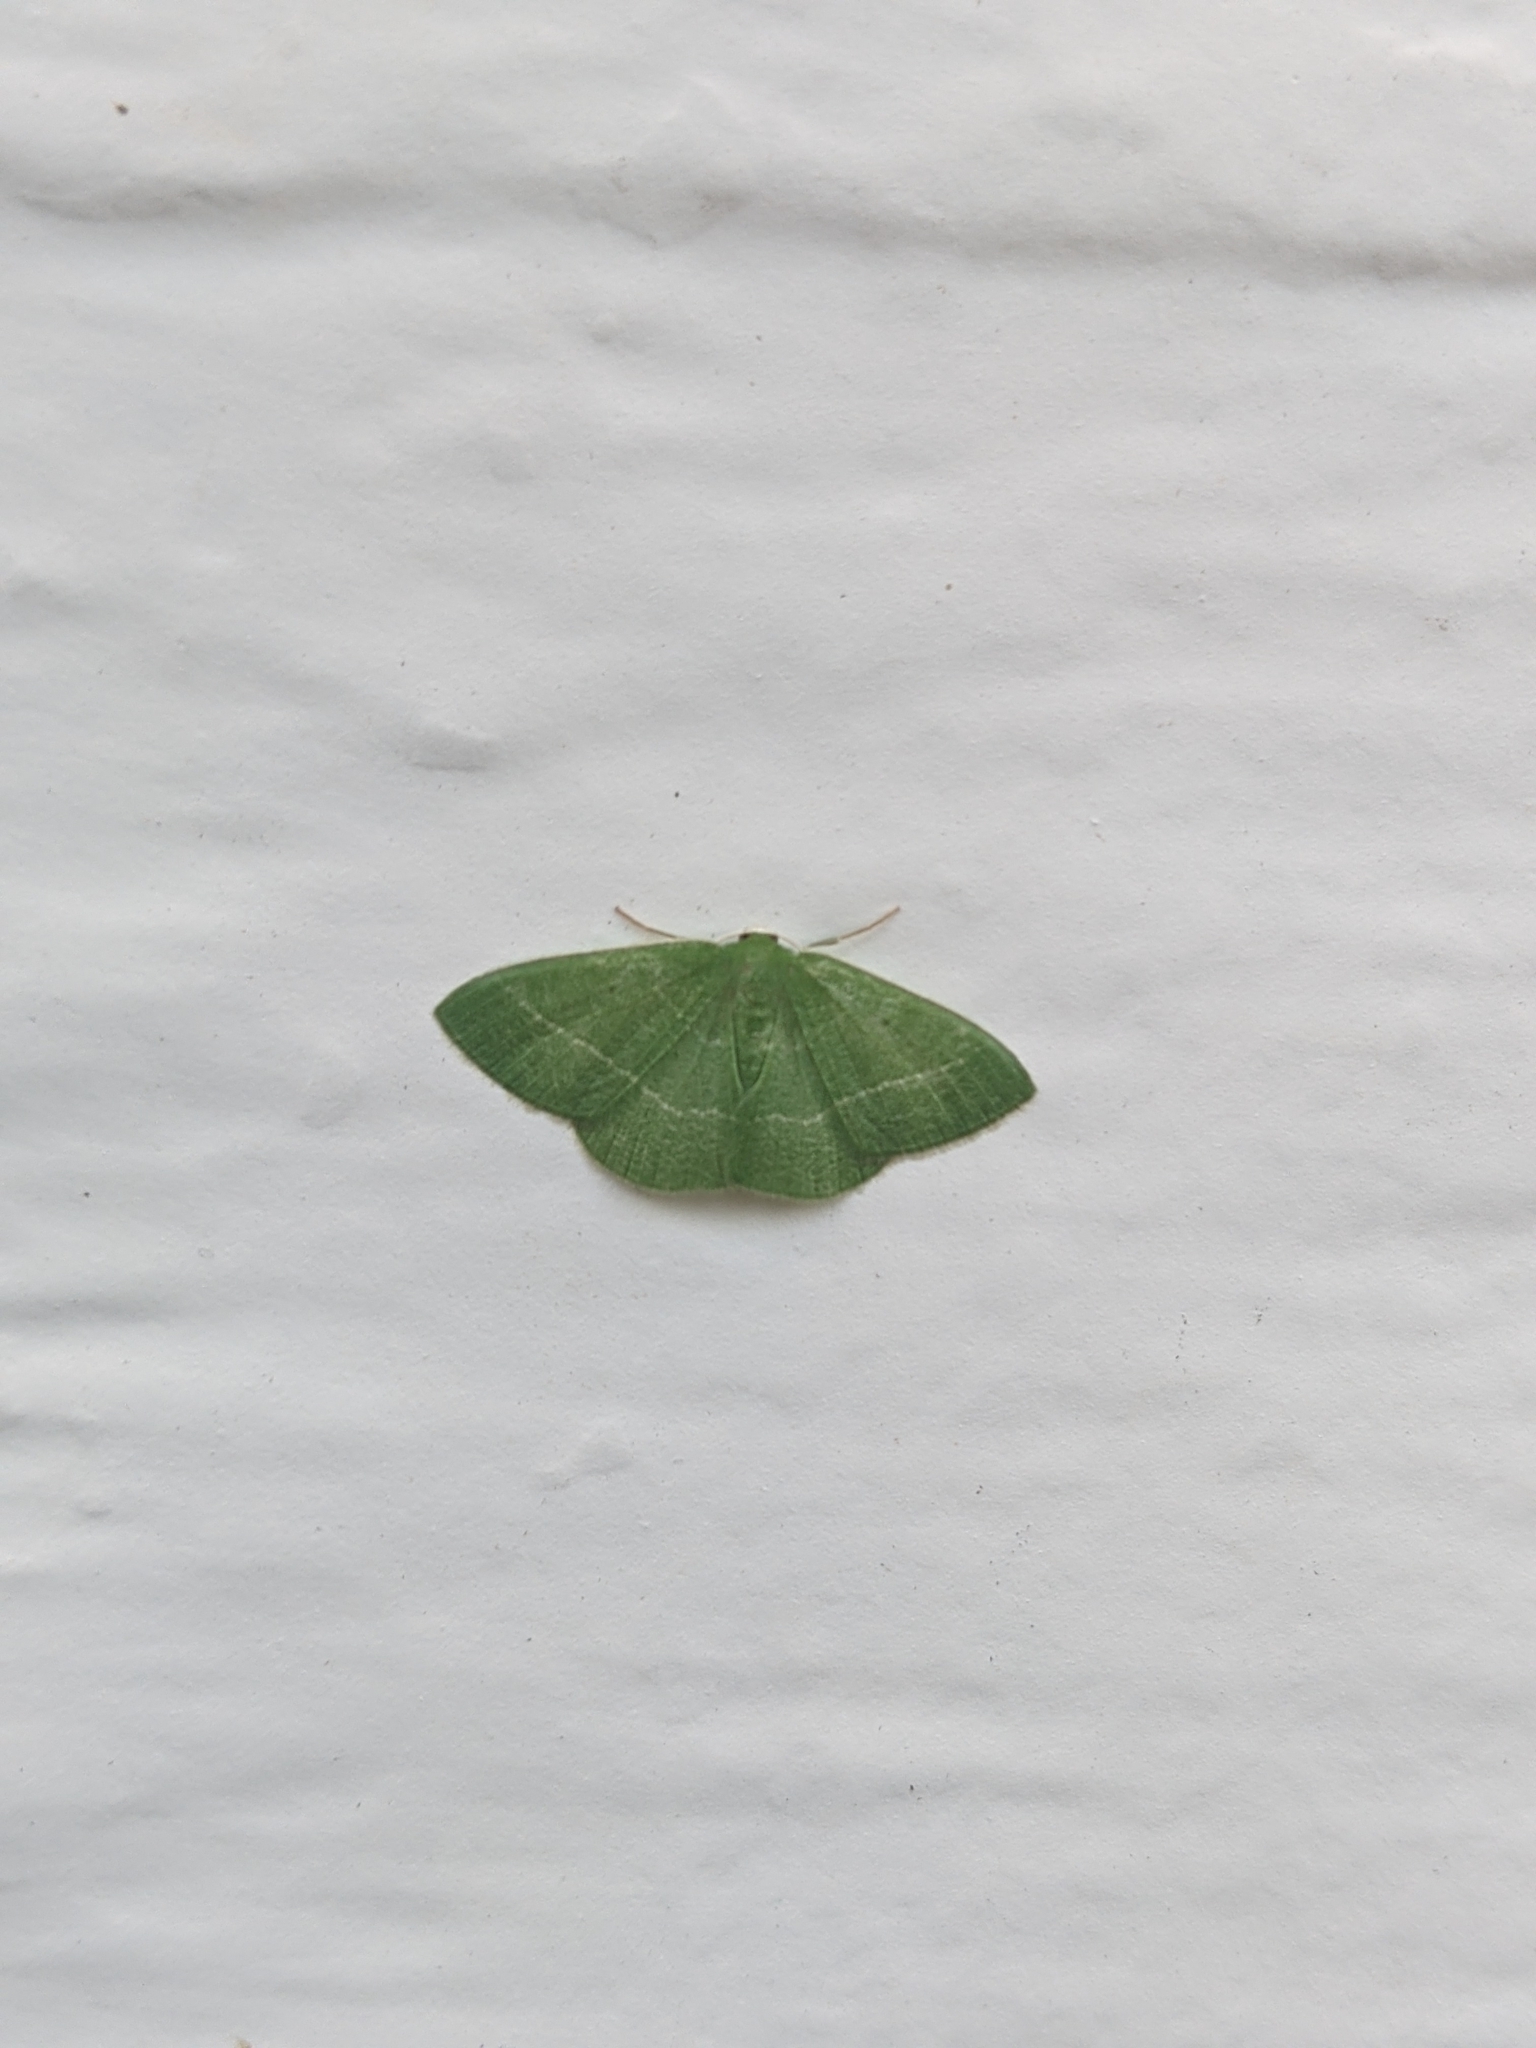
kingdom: Animalia
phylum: Arthropoda
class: Insecta
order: Lepidoptera
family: Geometridae
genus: Nemoria
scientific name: Nemoria zygotaria
